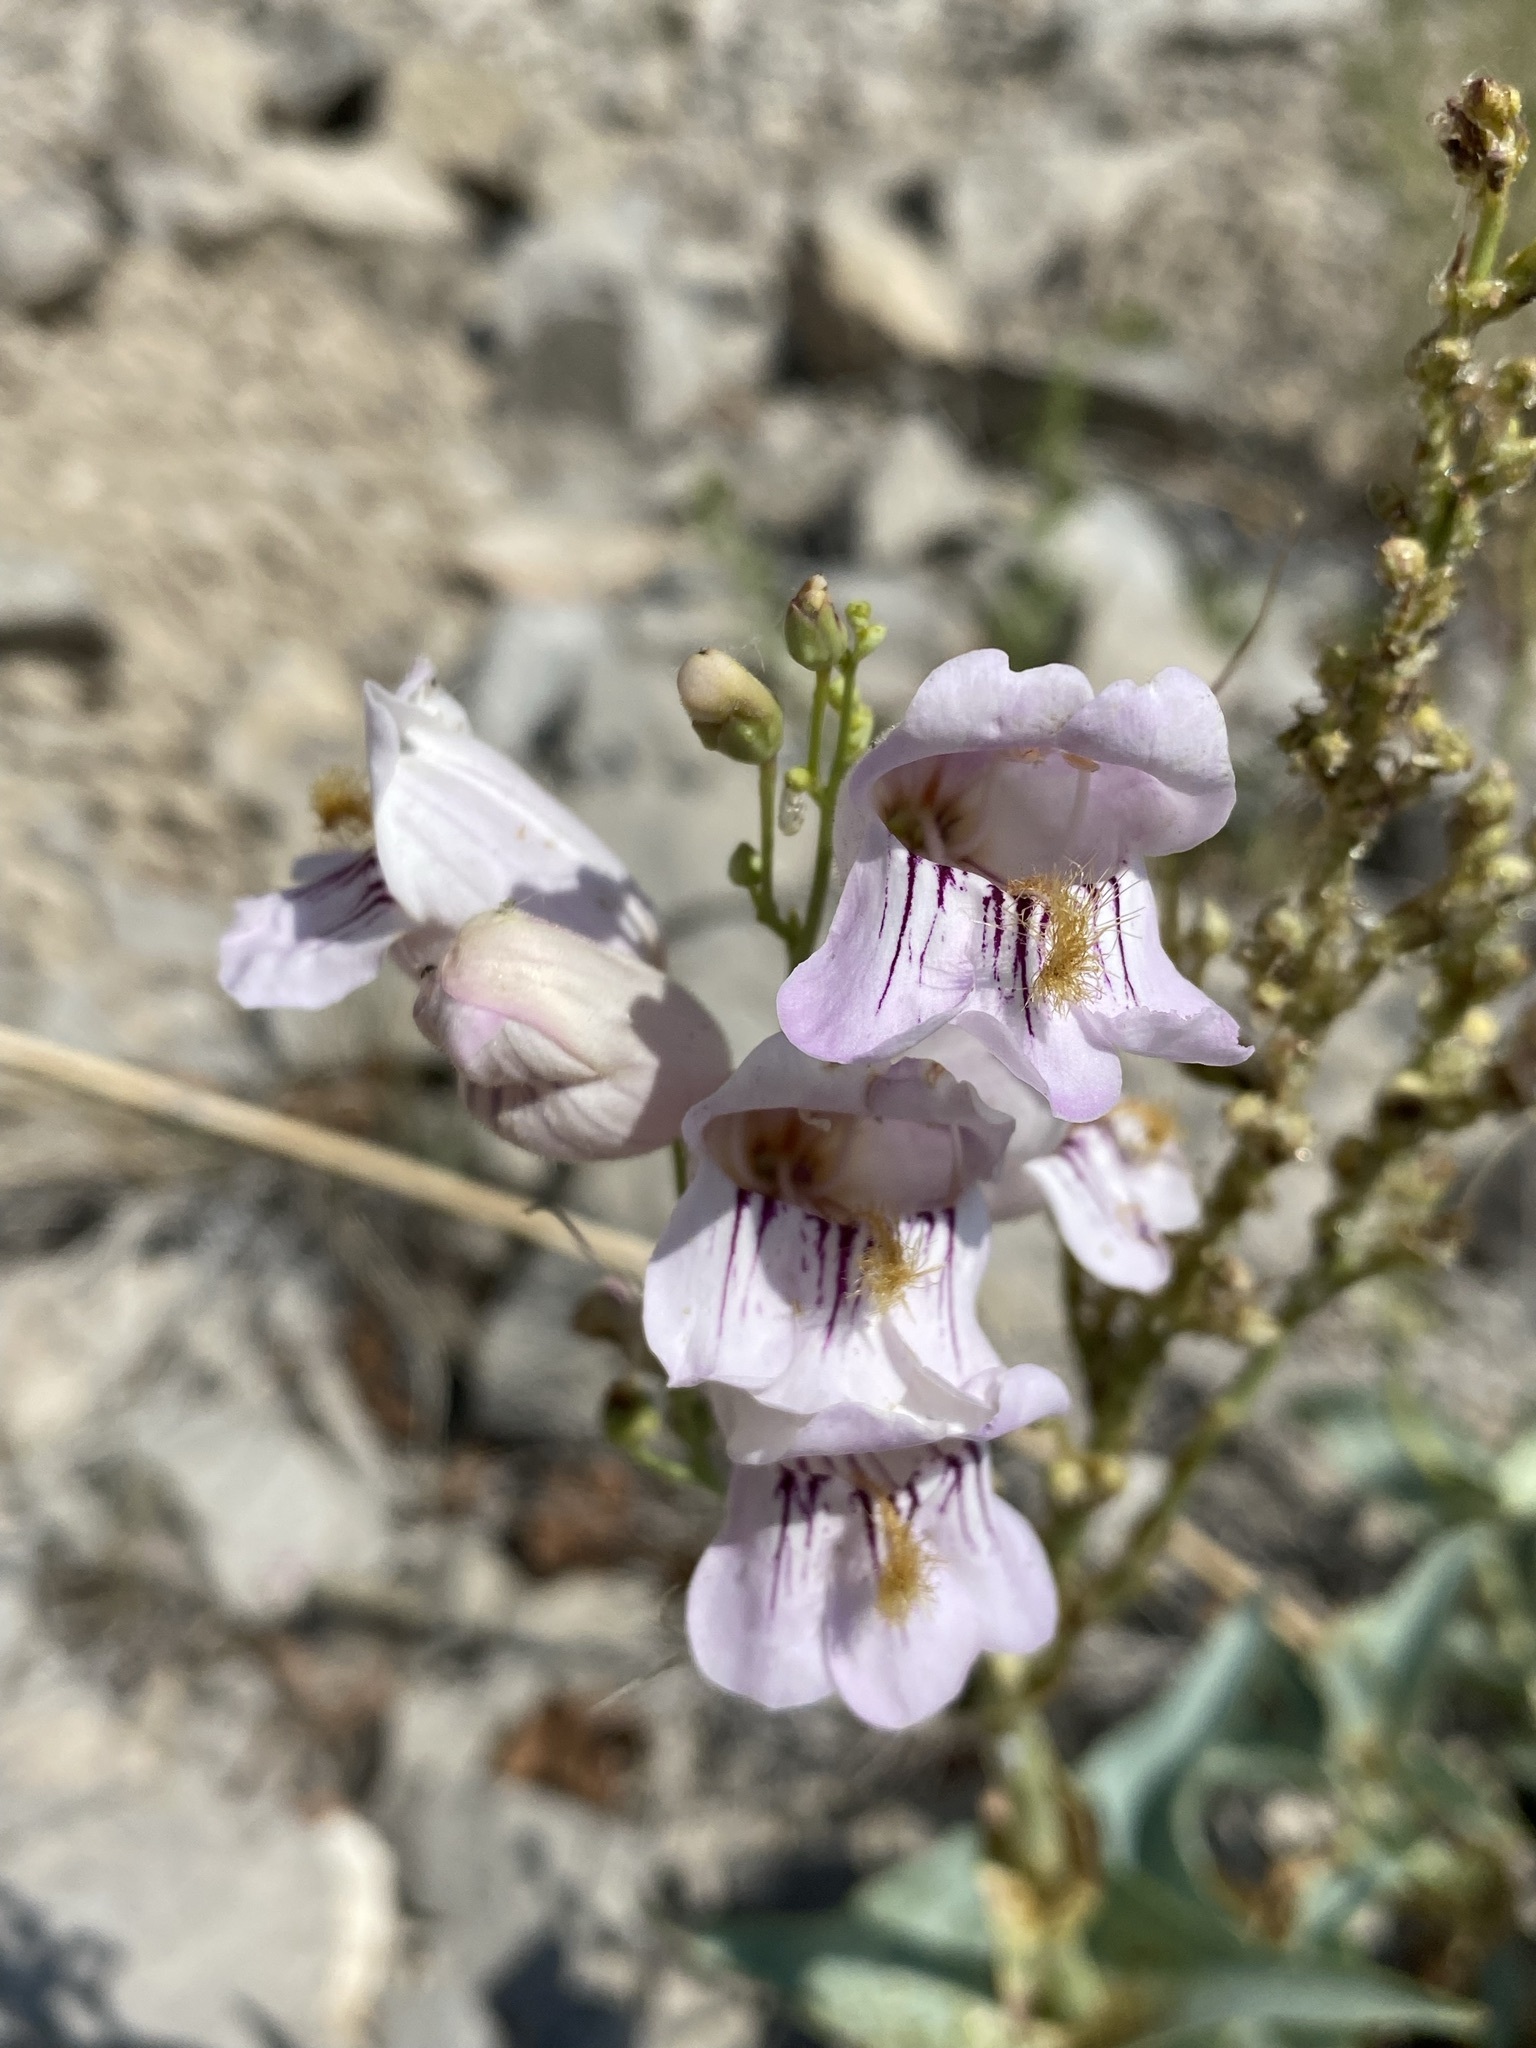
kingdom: Plantae
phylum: Tracheophyta
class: Magnoliopsida
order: Lamiales
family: Plantaginaceae
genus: Penstemon
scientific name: Penstemon palmeri
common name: Palmer penstemon
